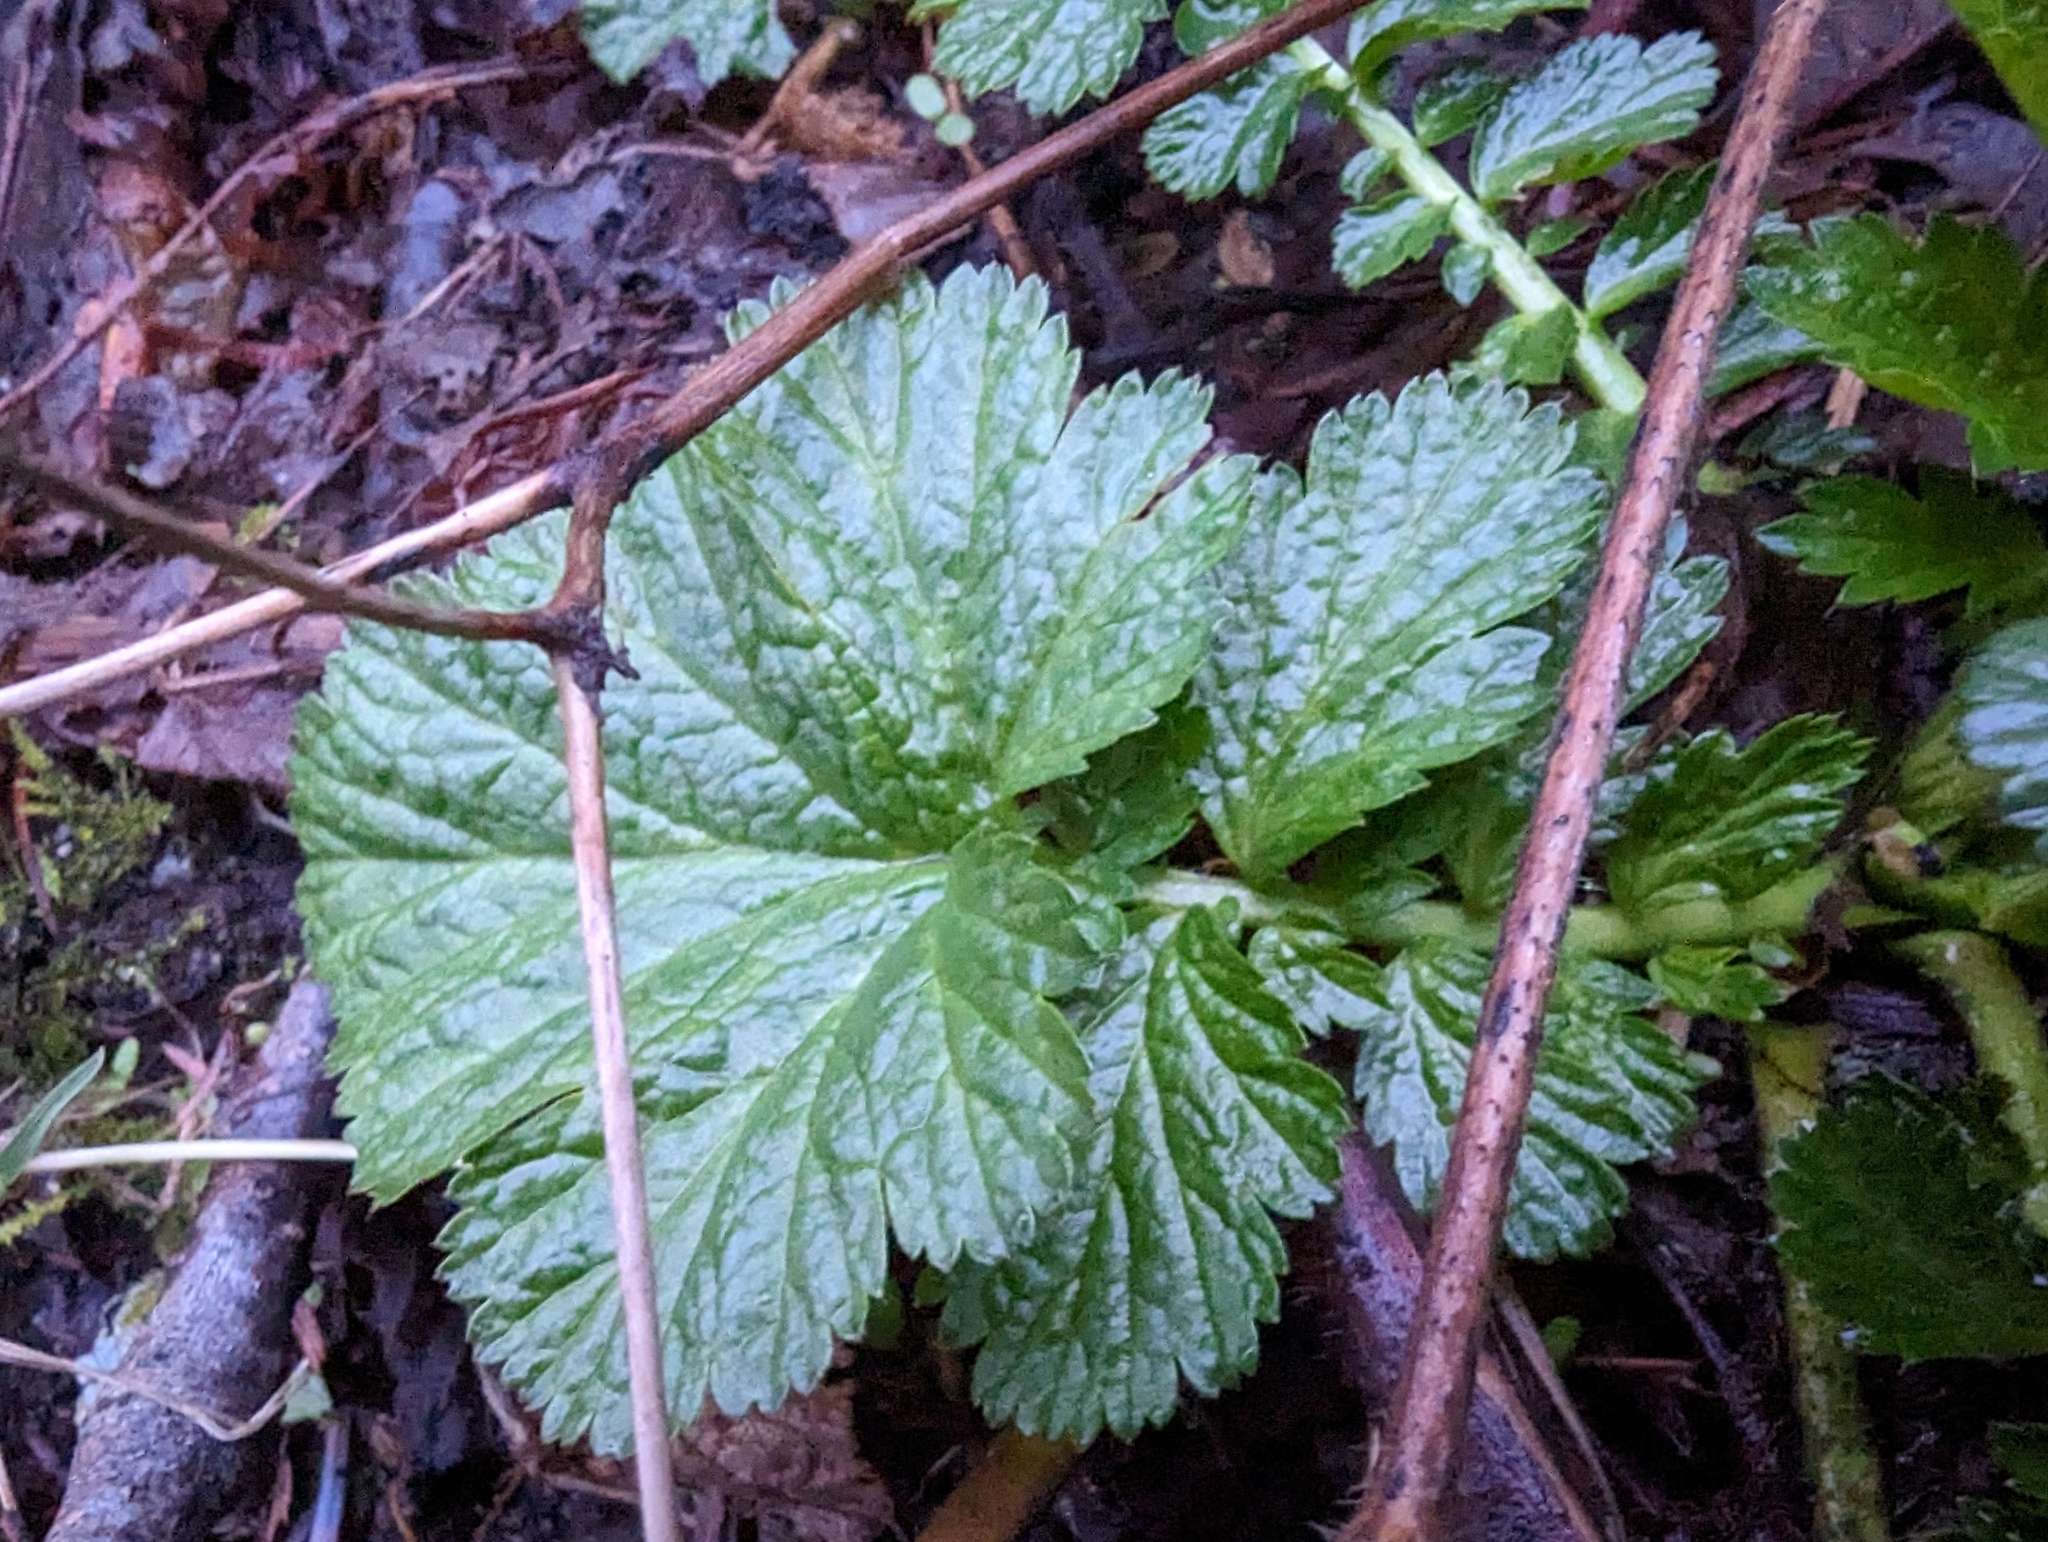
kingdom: Plantae
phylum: Tracheophyta
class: Magnoliopsida
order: Rosales
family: Rosaceae
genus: Geum
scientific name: Geum macrophyllum
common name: Large-leaved avens
